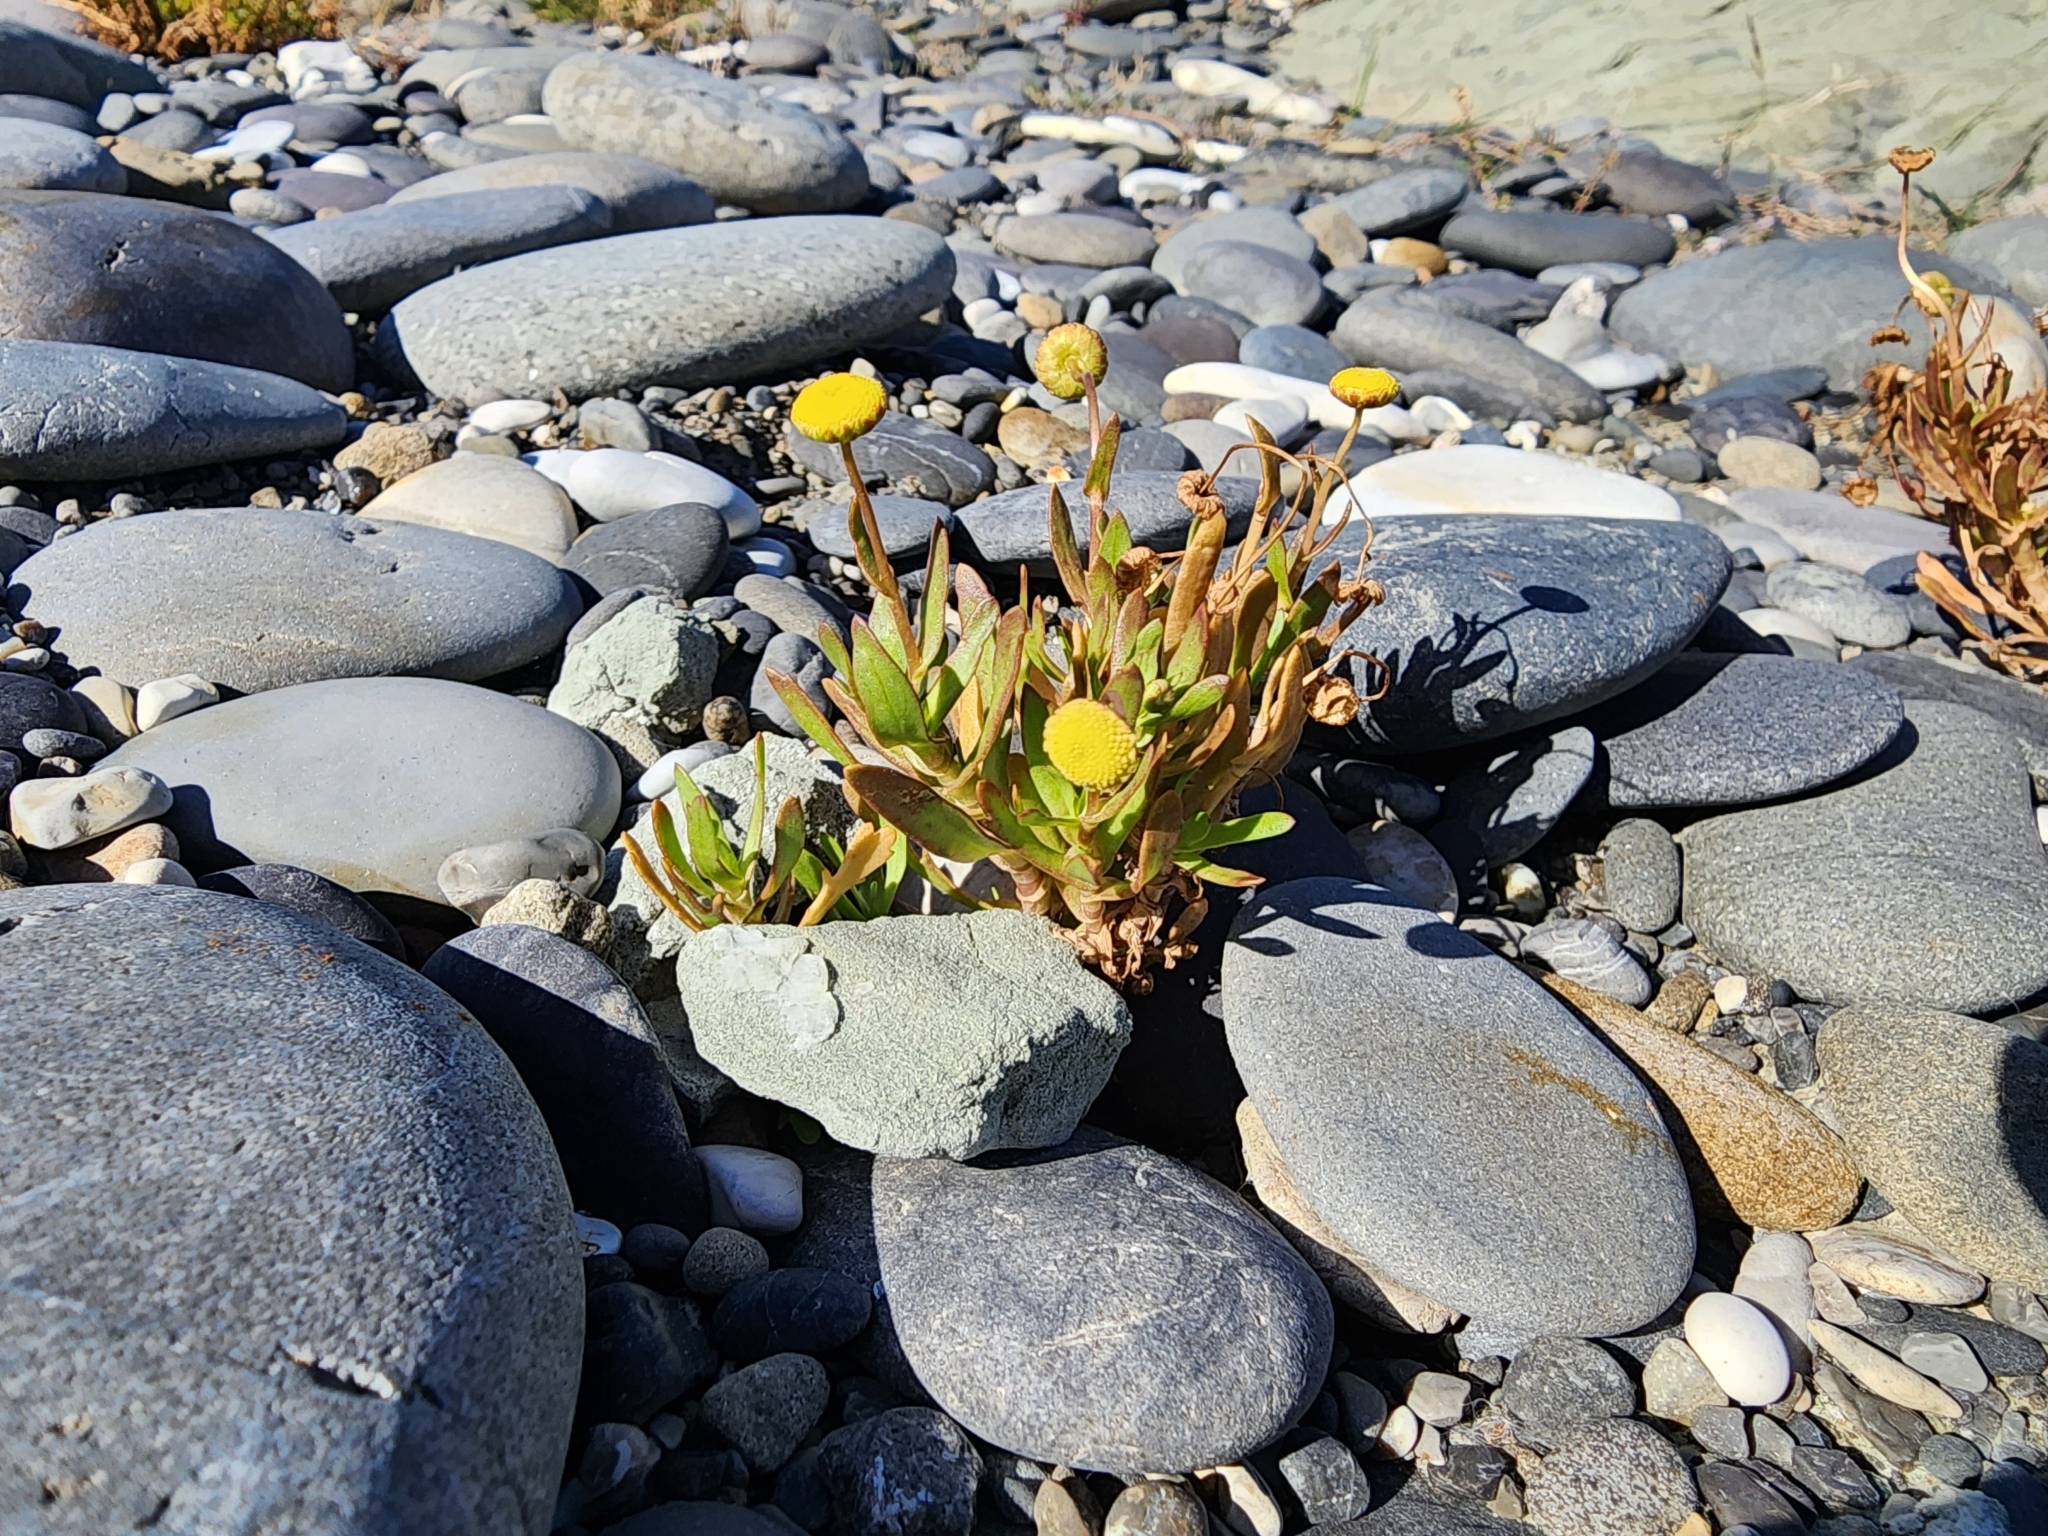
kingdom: Plantae
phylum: Tracheophyta
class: Magnoliopsida
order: Asterales
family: Asteraceae
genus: Cotula
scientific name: Cotula coronopifolia
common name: Buttonweed
